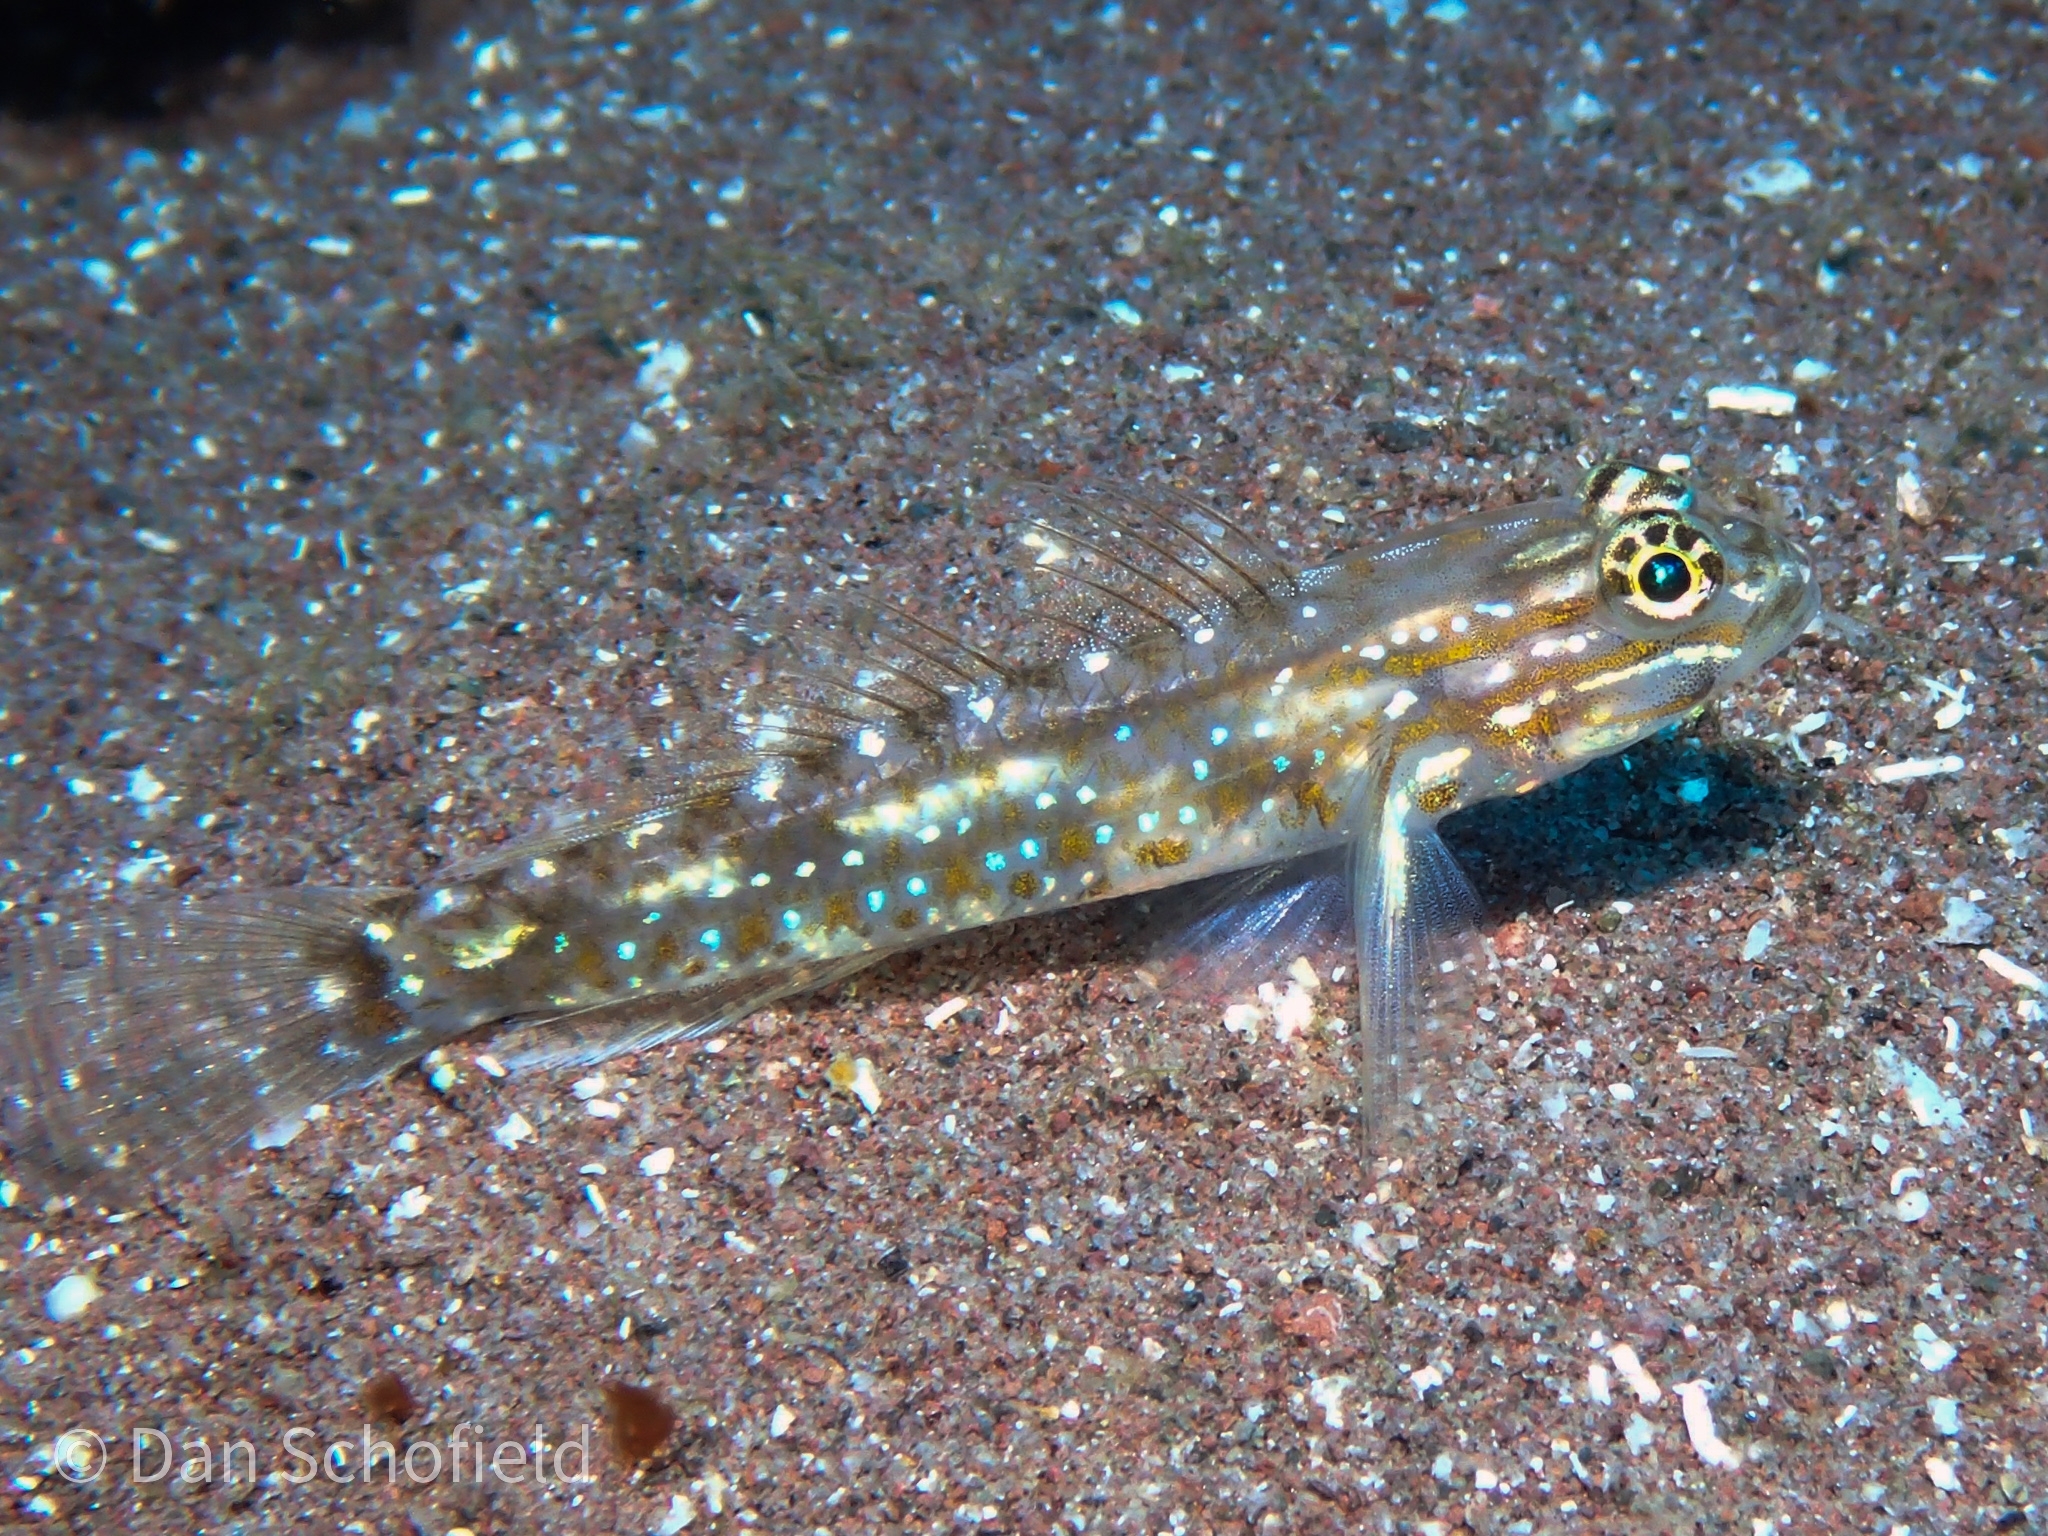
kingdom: Animalia
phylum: Chordata
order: Perciformes
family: Gobiidae
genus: Coryphopterus
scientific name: Coryphopterus glaucofraenum
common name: Bridled goby
